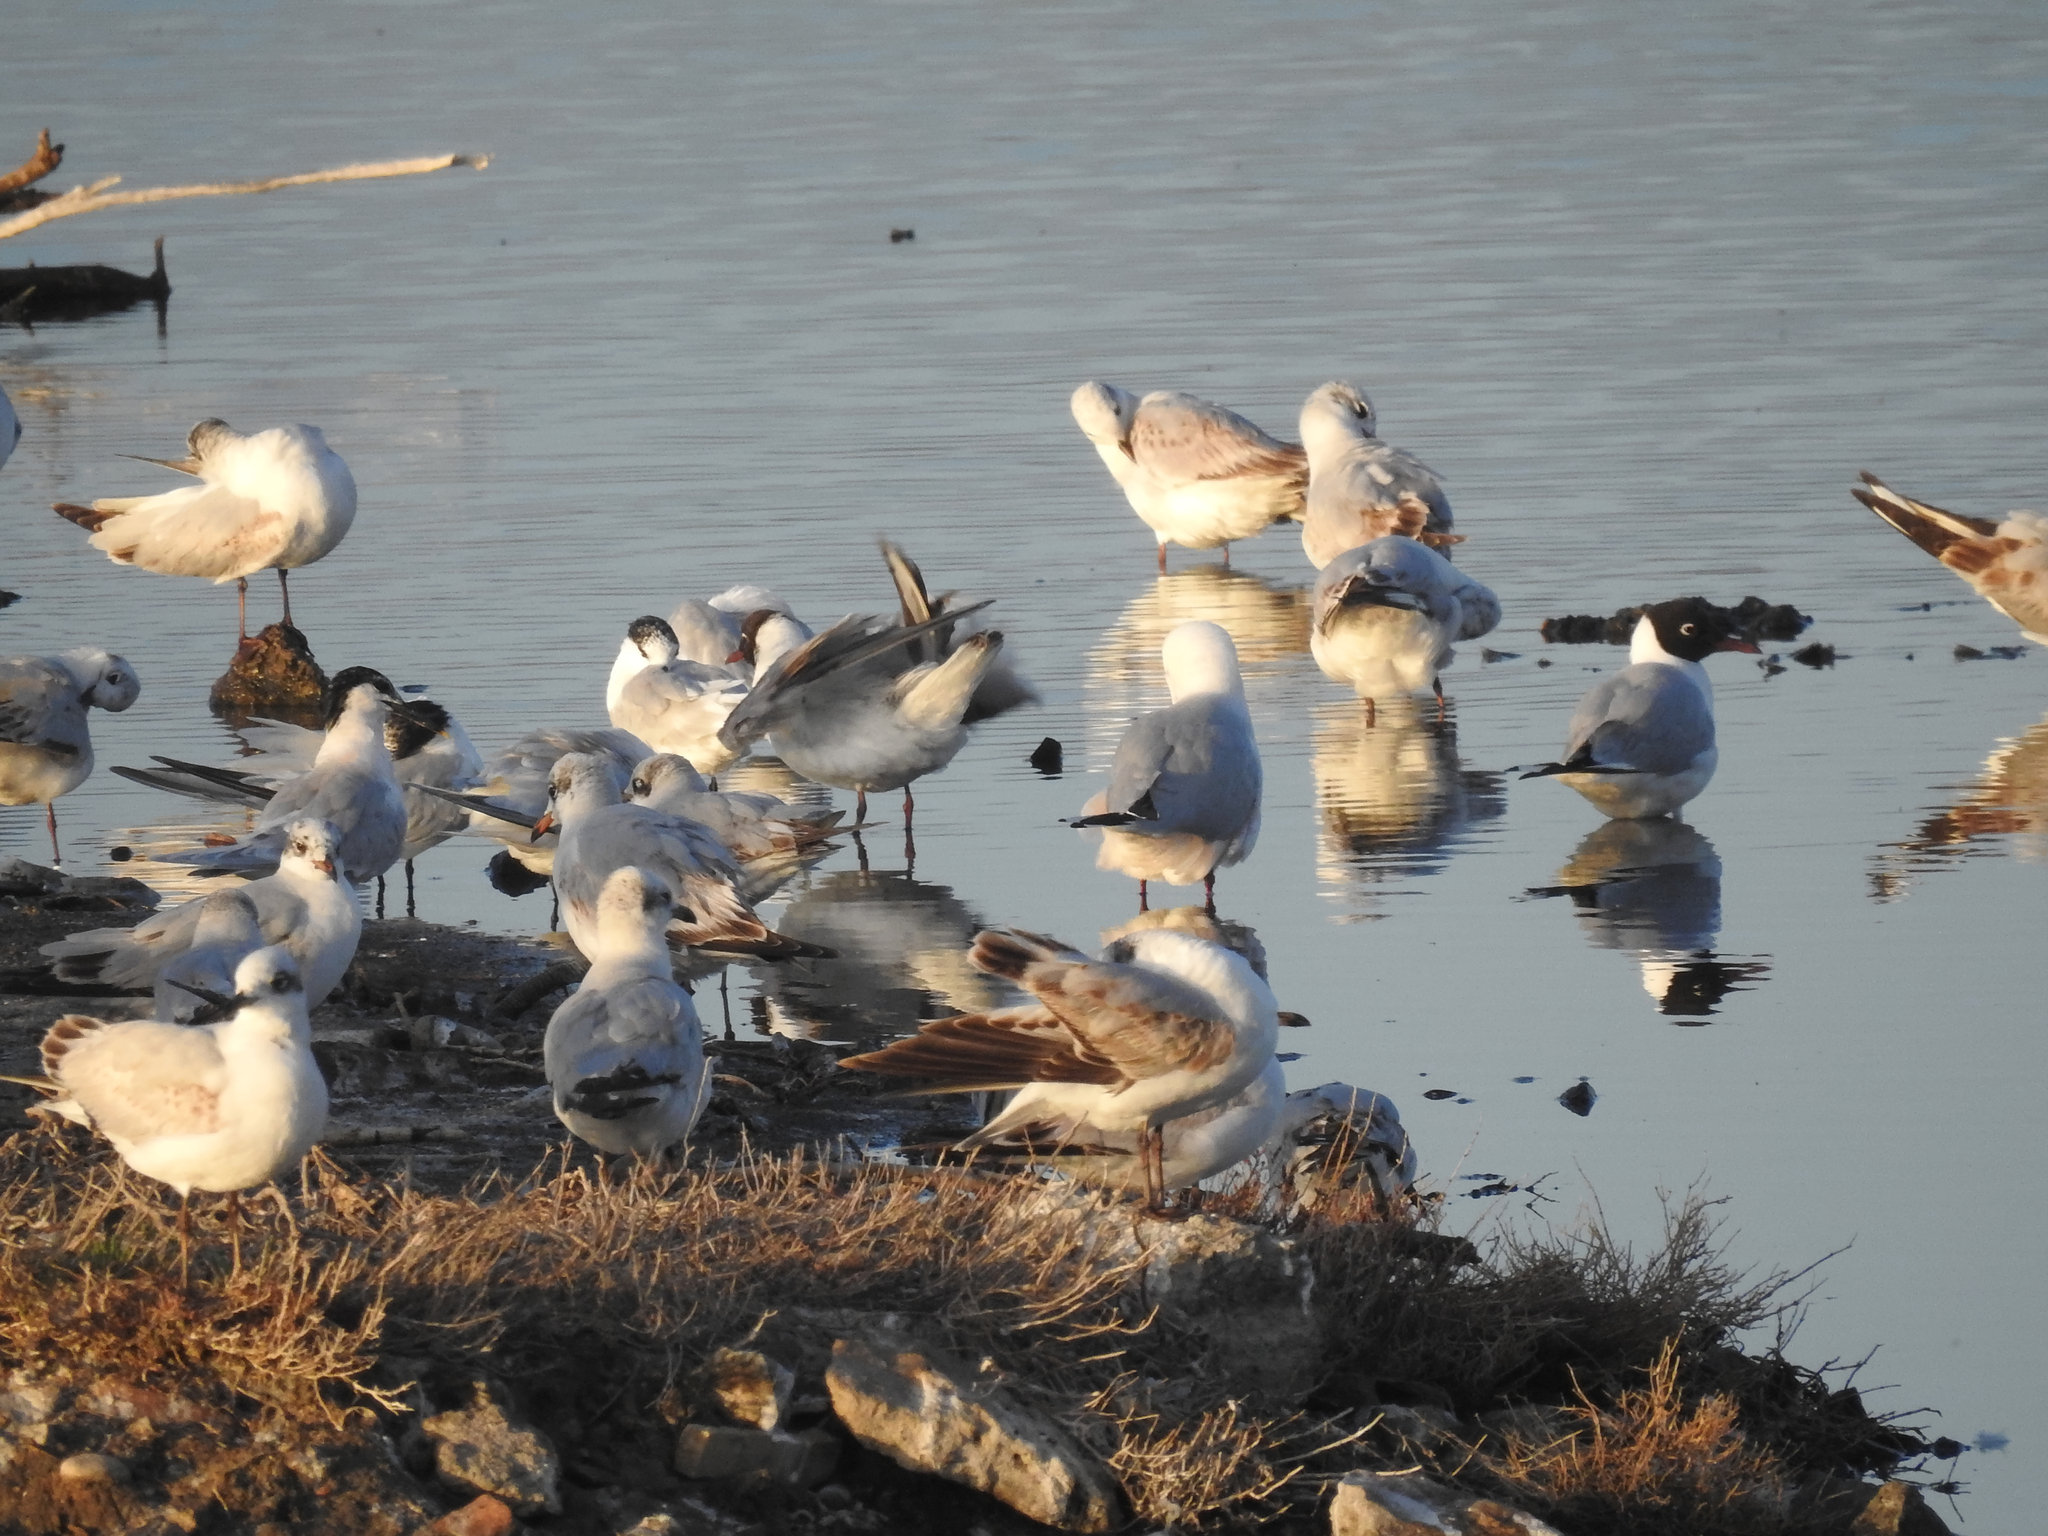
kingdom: Animalia
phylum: Chordata
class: Aves
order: Charadriiformes
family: Laridae
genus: Ichthyaetus
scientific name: Ichthyaetus melanocephalus
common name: Mediterranean gull
